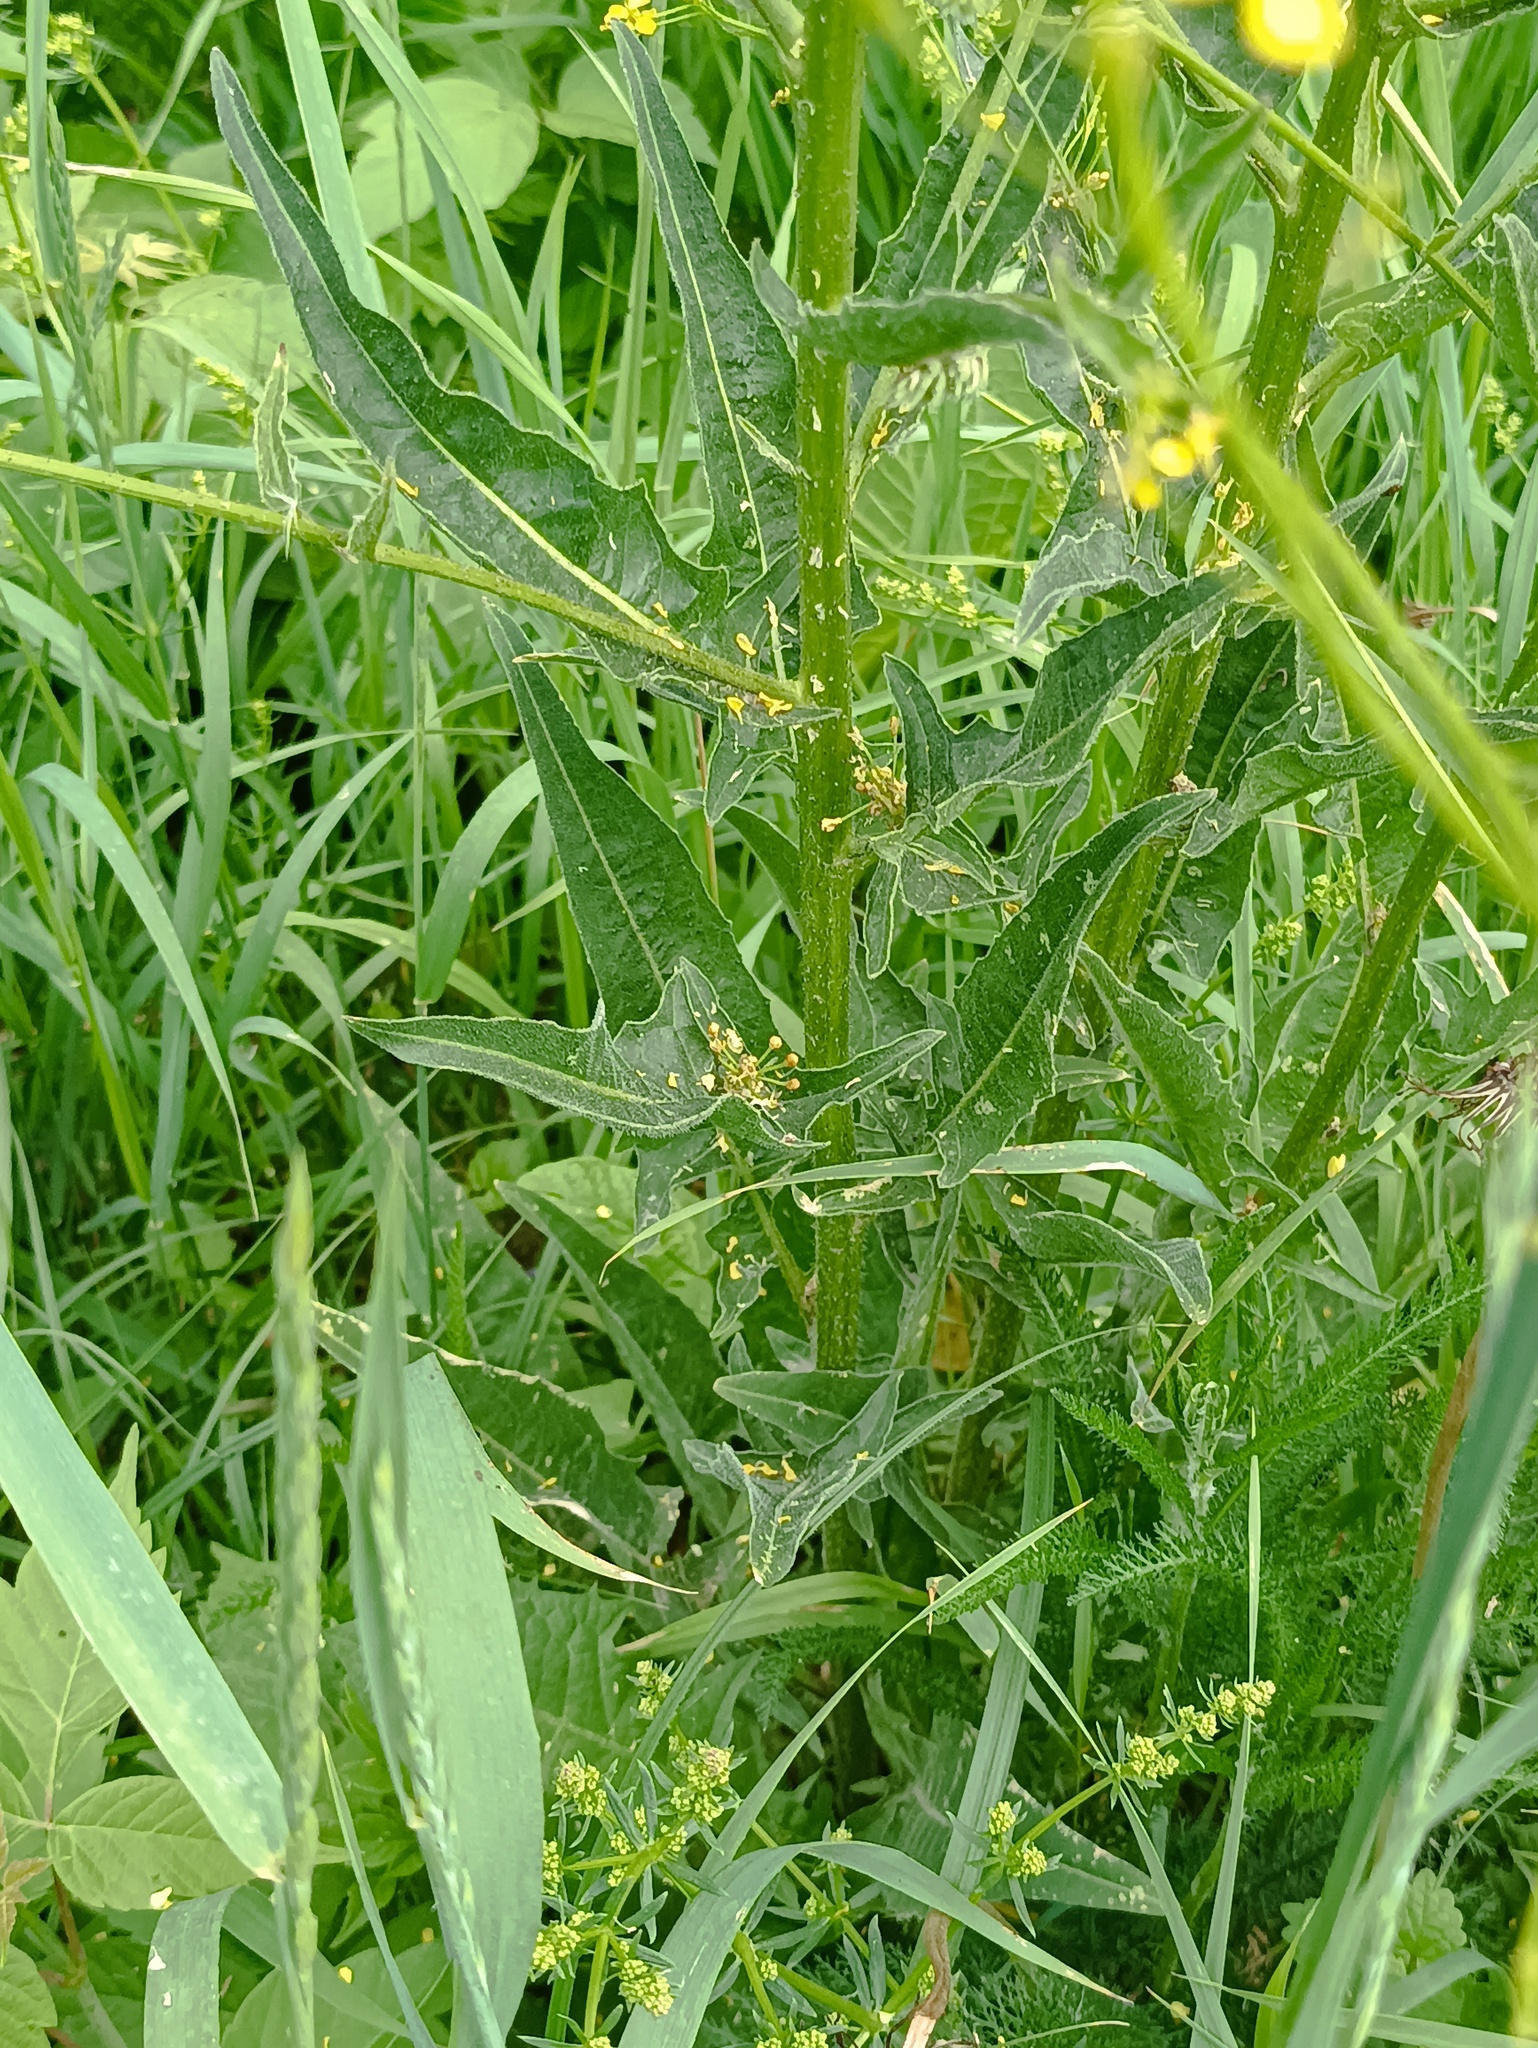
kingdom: Plantae
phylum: Tracheophyta
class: Magnoliopsida
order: Brassicales
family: Brassicaceae
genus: Bunias
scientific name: Bunias orientalis
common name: Warty-cabbage
